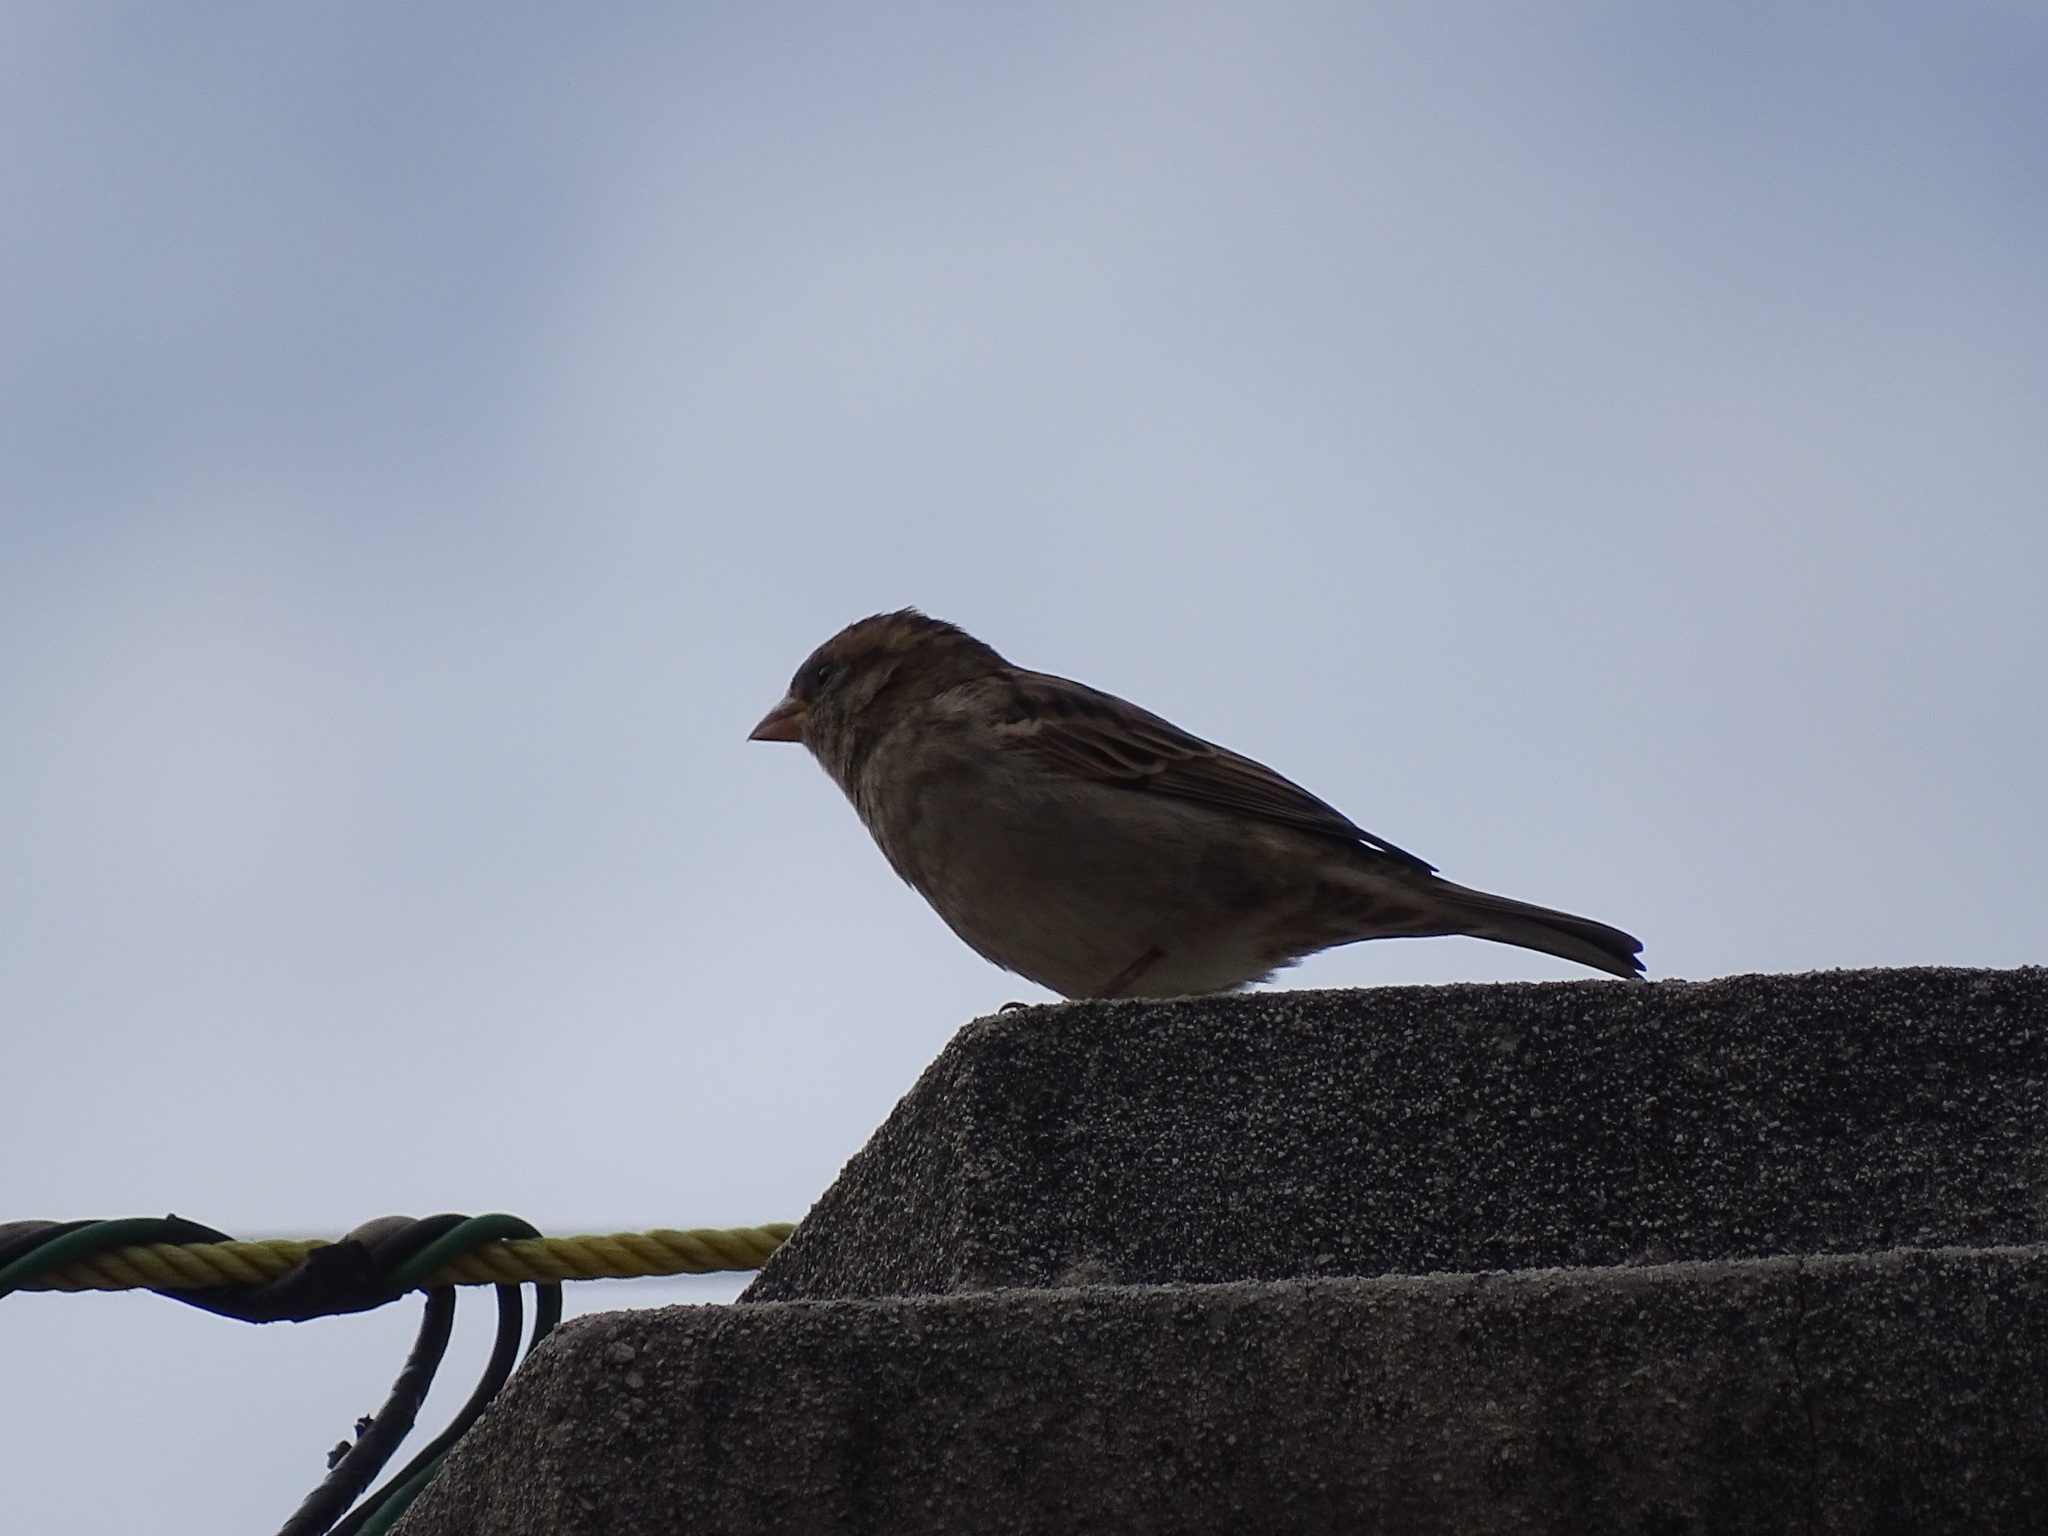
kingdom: Animalia
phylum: Chordata
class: Aves
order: Passeriformes
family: Passeridae
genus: Passer
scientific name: Passer domesticus
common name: House sparrow
